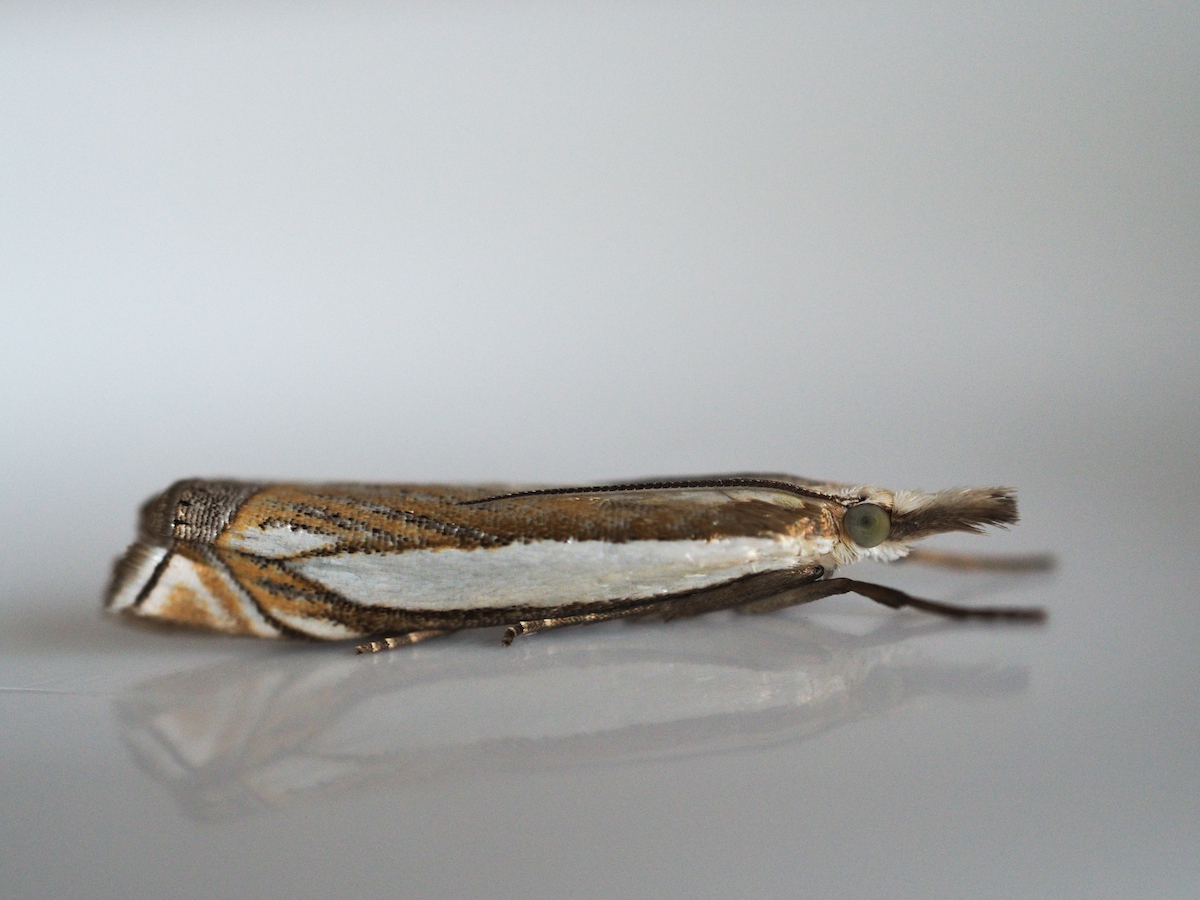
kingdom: Animalia
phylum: Arthropoda
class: Insecta
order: Lepidoptera
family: Crambidae
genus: Crambus
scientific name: Crambus pascuella
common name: Inlaid grass-veneer
